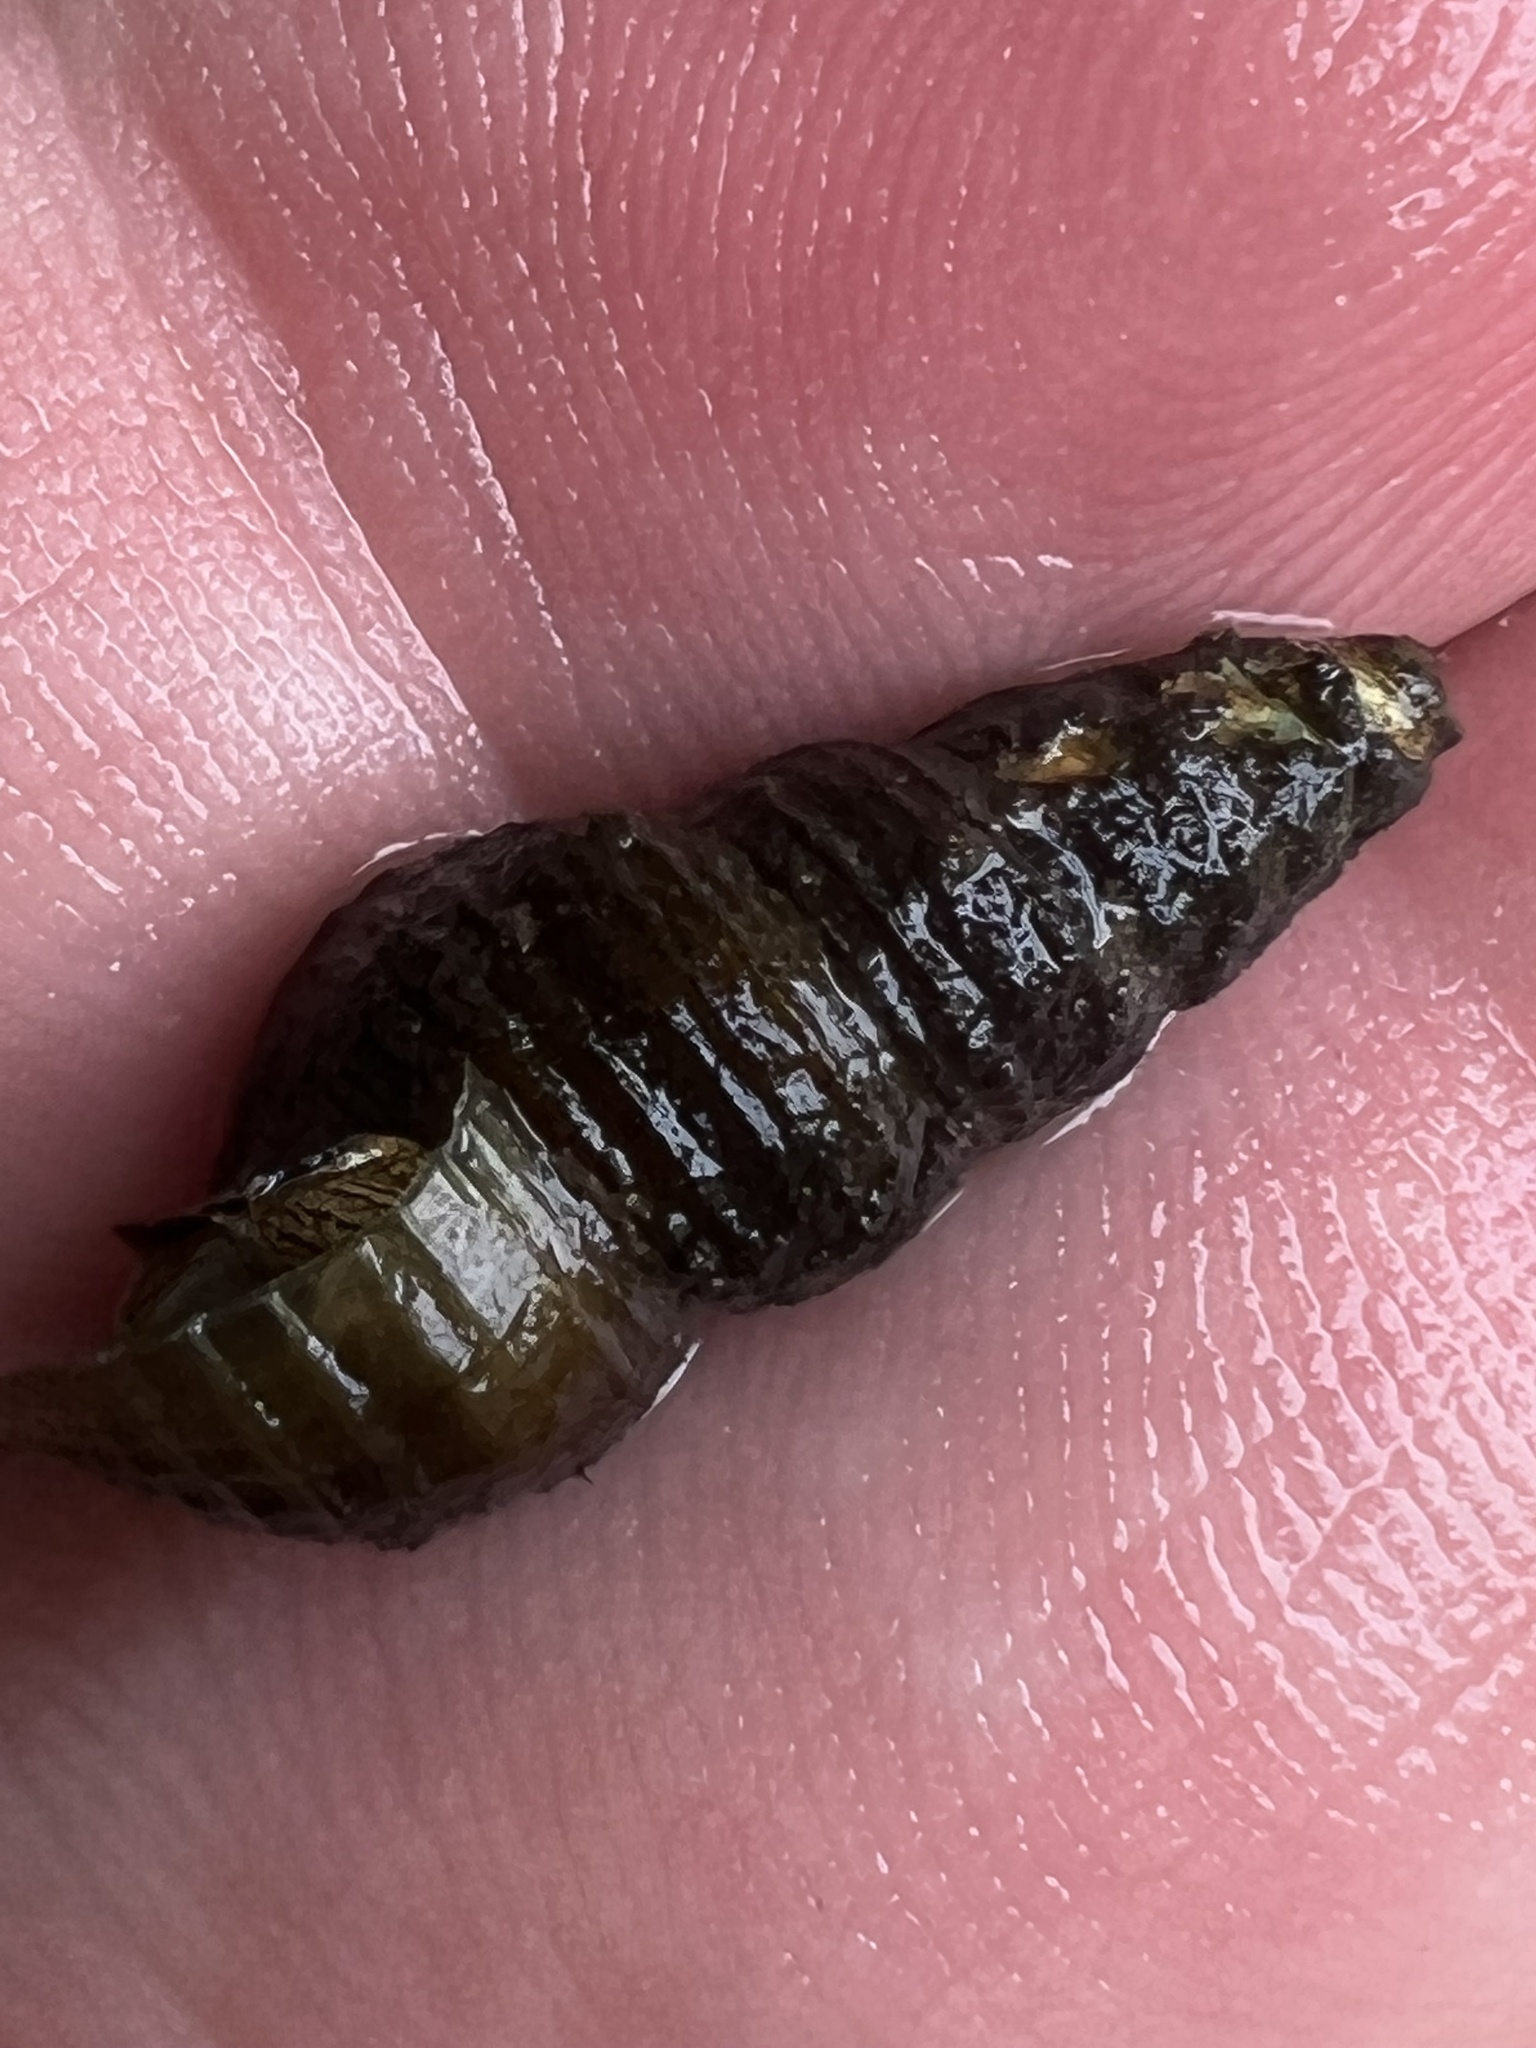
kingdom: Animalia
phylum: Mollusca
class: Gastropoda
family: Pleuroceridae
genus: Elimia
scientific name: Elimia virginica
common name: Piedmont elimia
